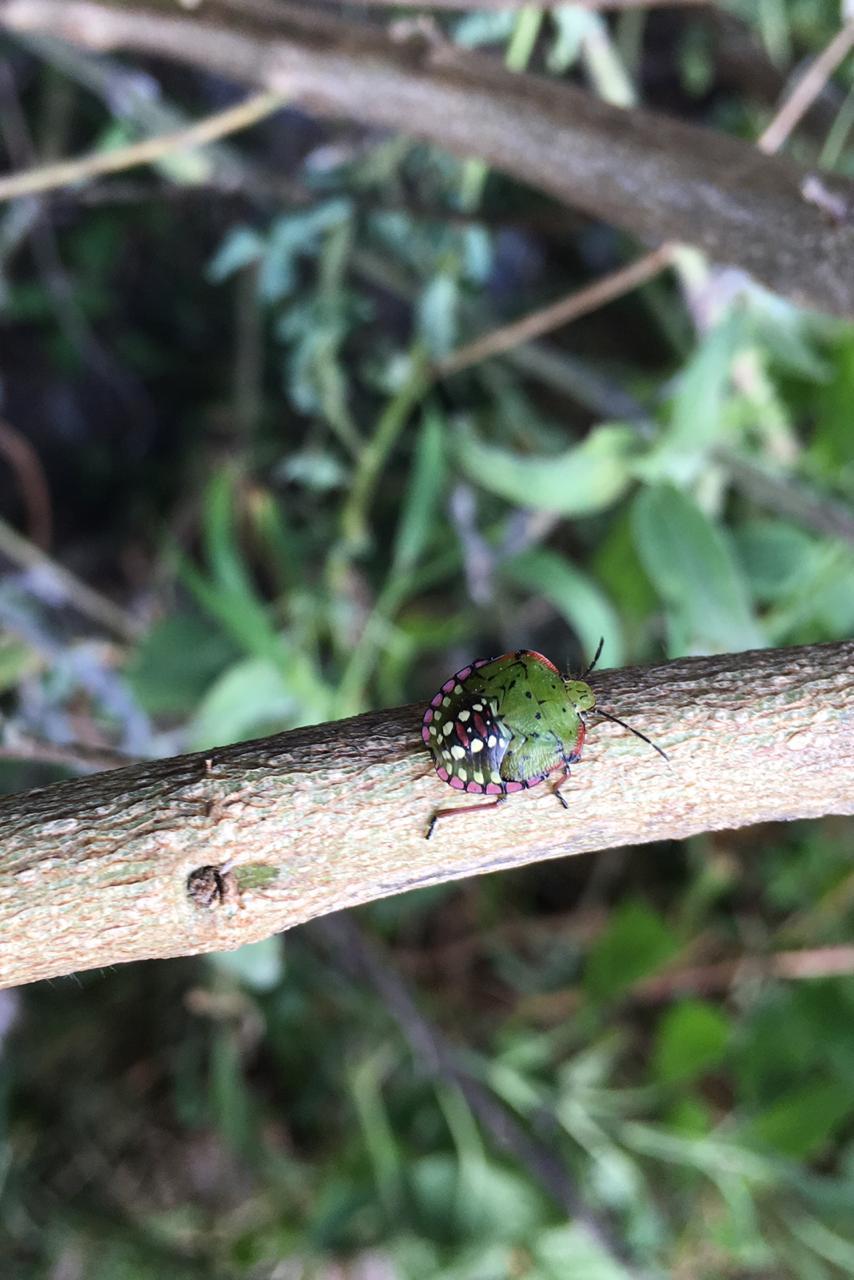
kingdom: Animalia
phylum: Arthropoda
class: Insecta
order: Hemiptera
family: Pentatomidae
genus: Nezara
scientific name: Nezara viridula
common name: Southern green stink bug
